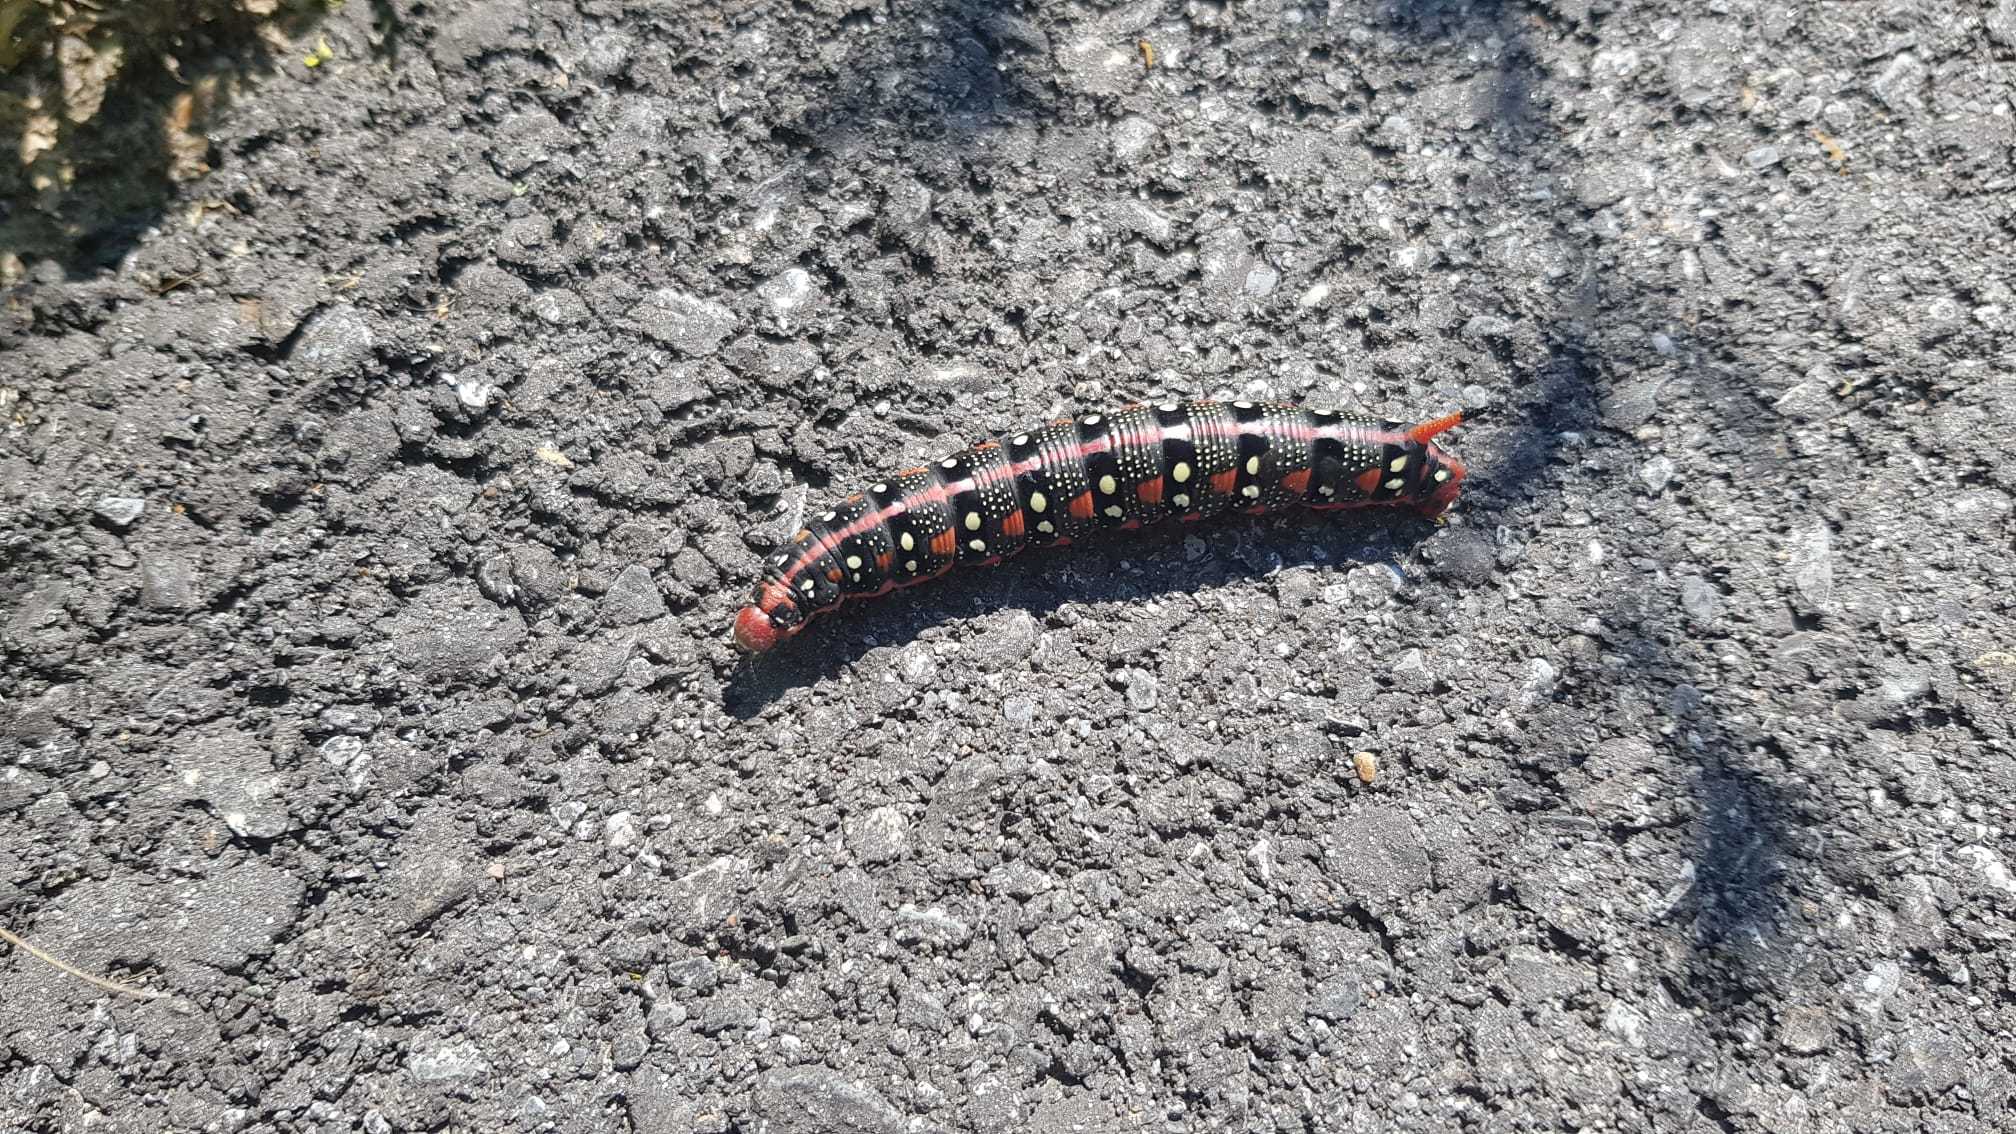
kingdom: Animalia
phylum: Arthropoda
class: Insecta
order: Lepidoptera
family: Sphingidae
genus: Hyles
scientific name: Hyles euphorbiae
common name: Spurge hawk-moth
